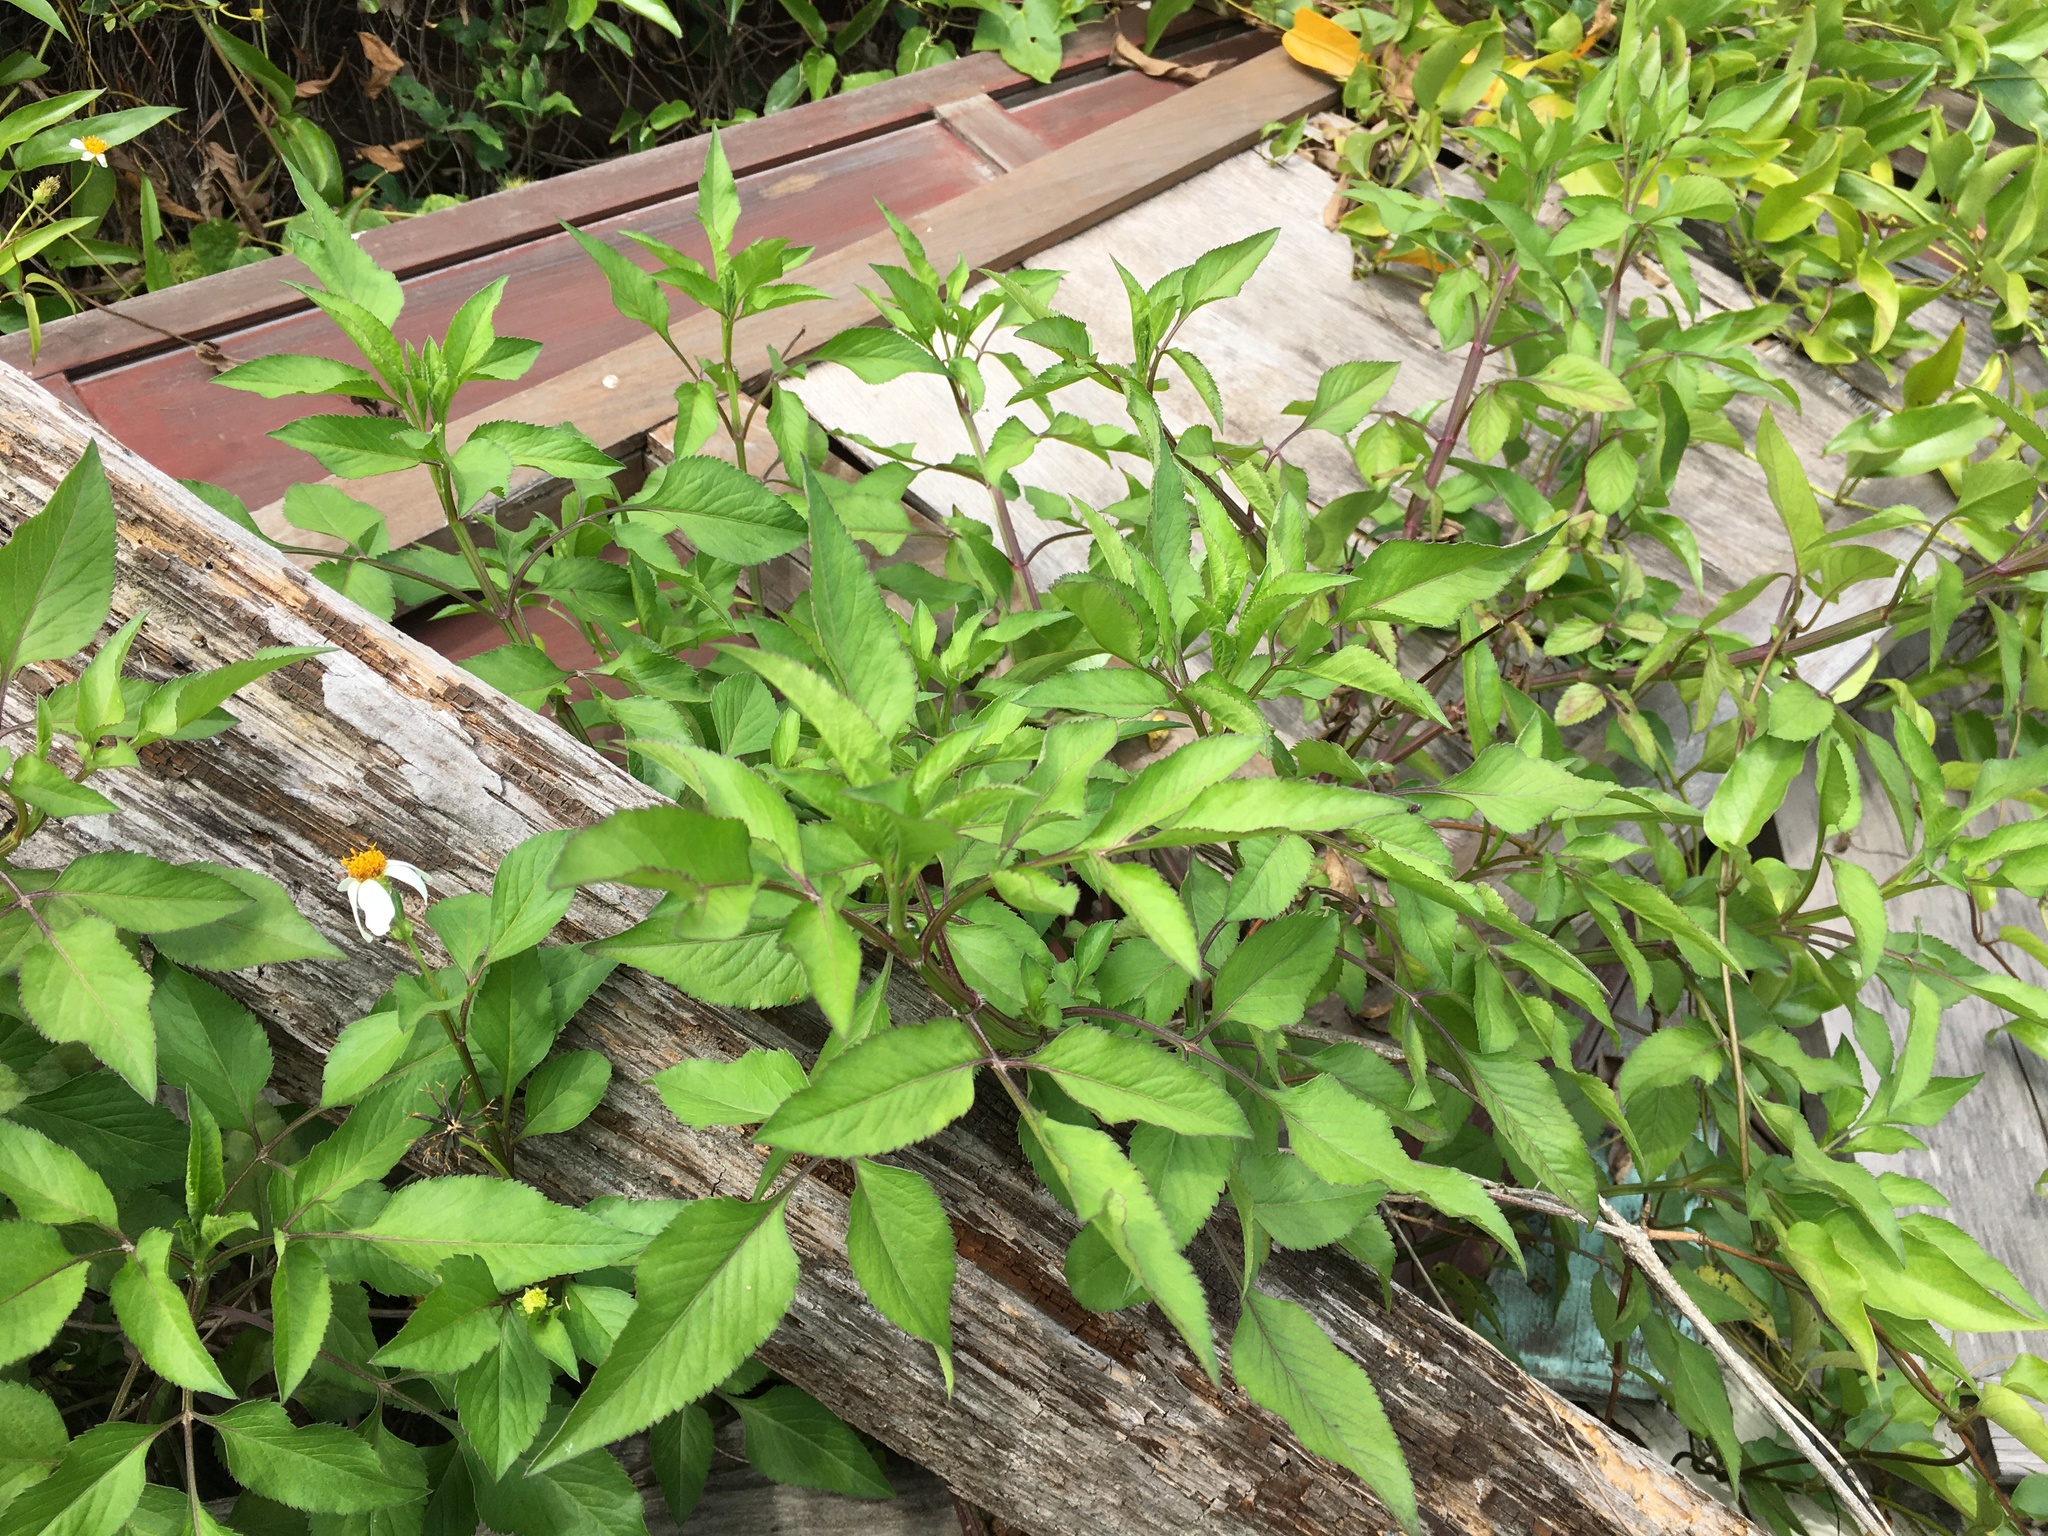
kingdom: Plantae
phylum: Tracheophyta
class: Magnoliopsida
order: Asterales
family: Asteraceae
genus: Bidens
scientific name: Bidens alba
